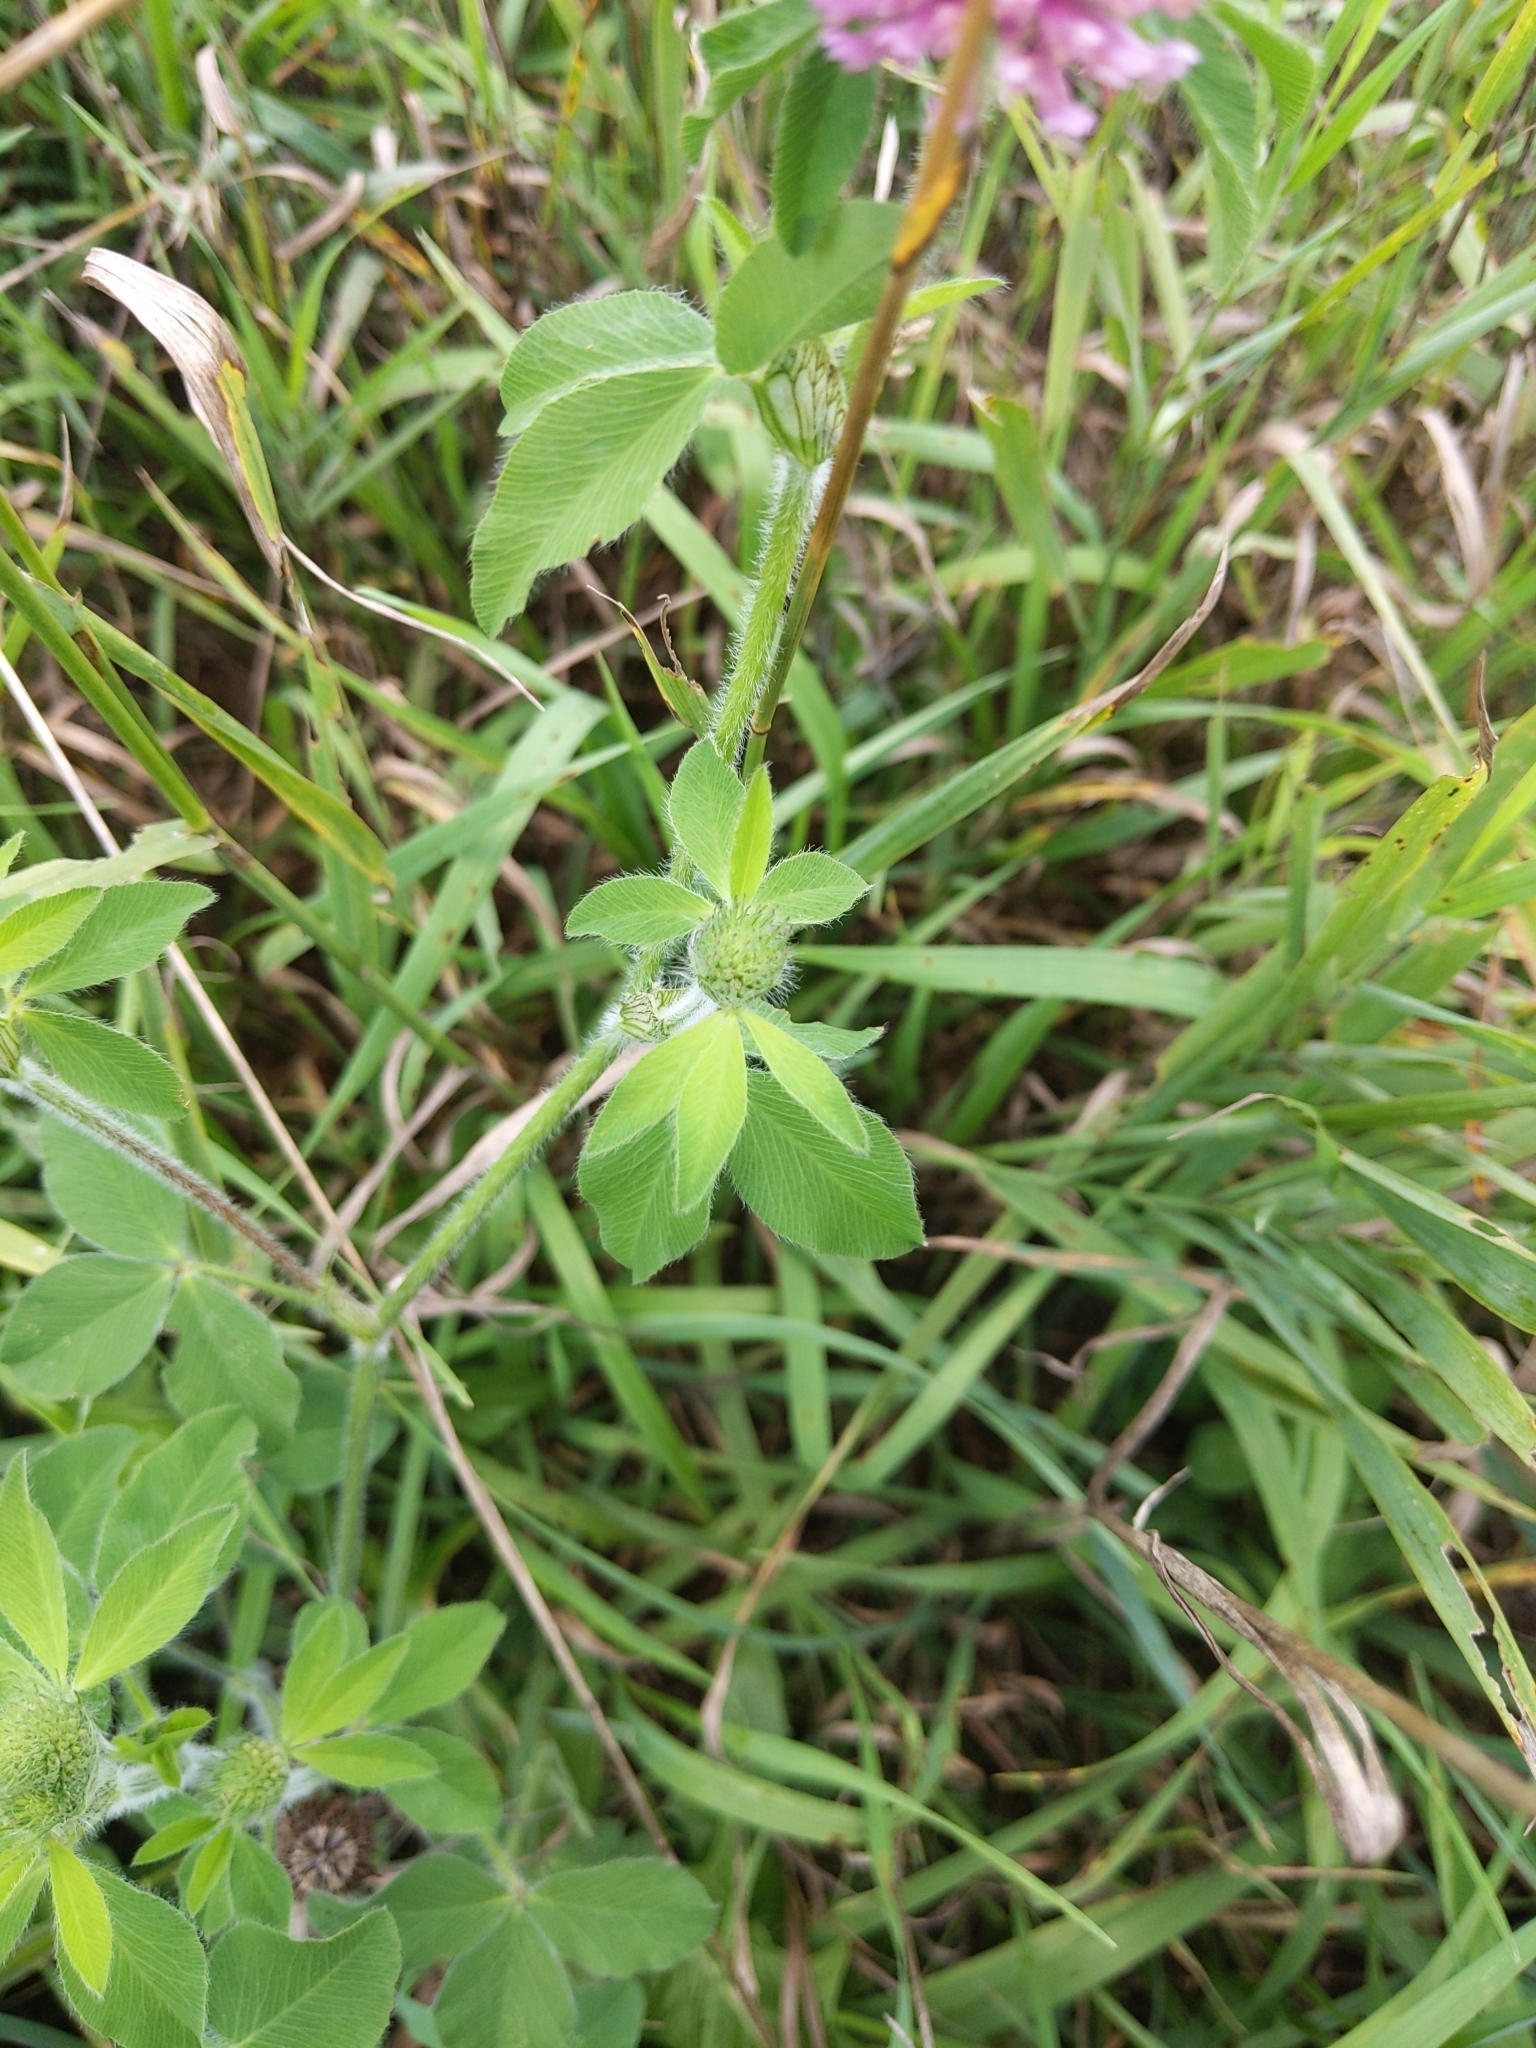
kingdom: Plantae
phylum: Tracheophyta
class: Magnoliopsida
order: Fabales
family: Fabaceae
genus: Trifolium
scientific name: Trifolium pratense
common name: Red clover
